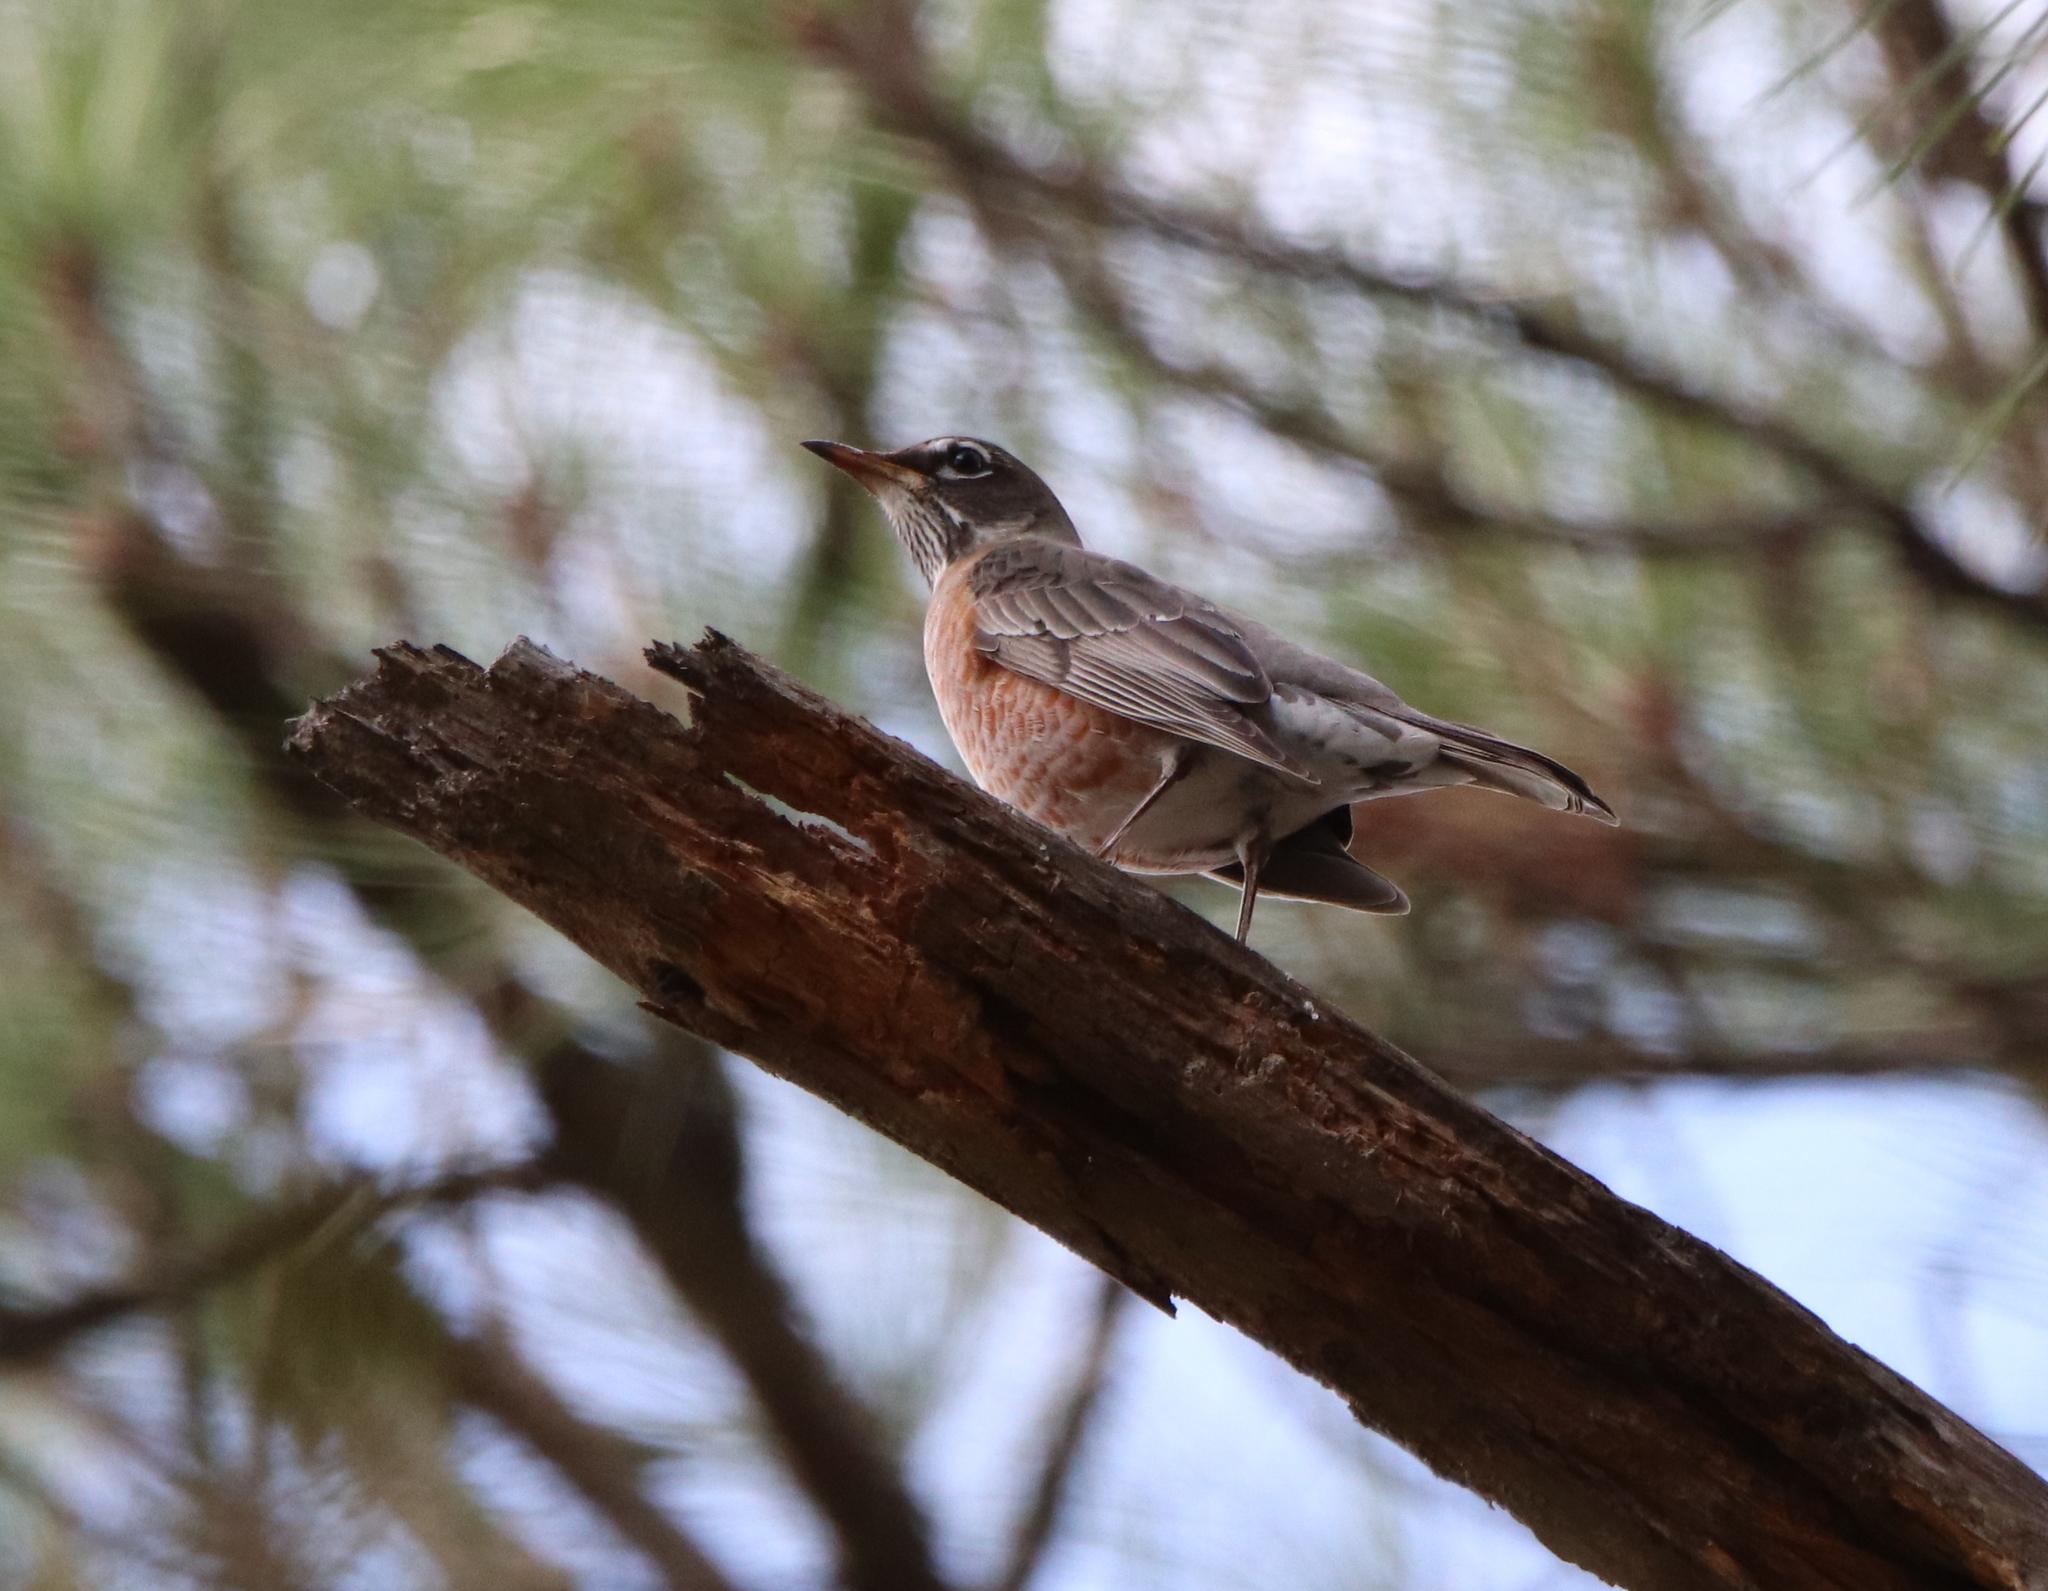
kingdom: Animalia
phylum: Chordata
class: Aves
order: Passeriformes
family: Turdidae
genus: Turdus
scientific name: Turdus migratorius
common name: American robin
